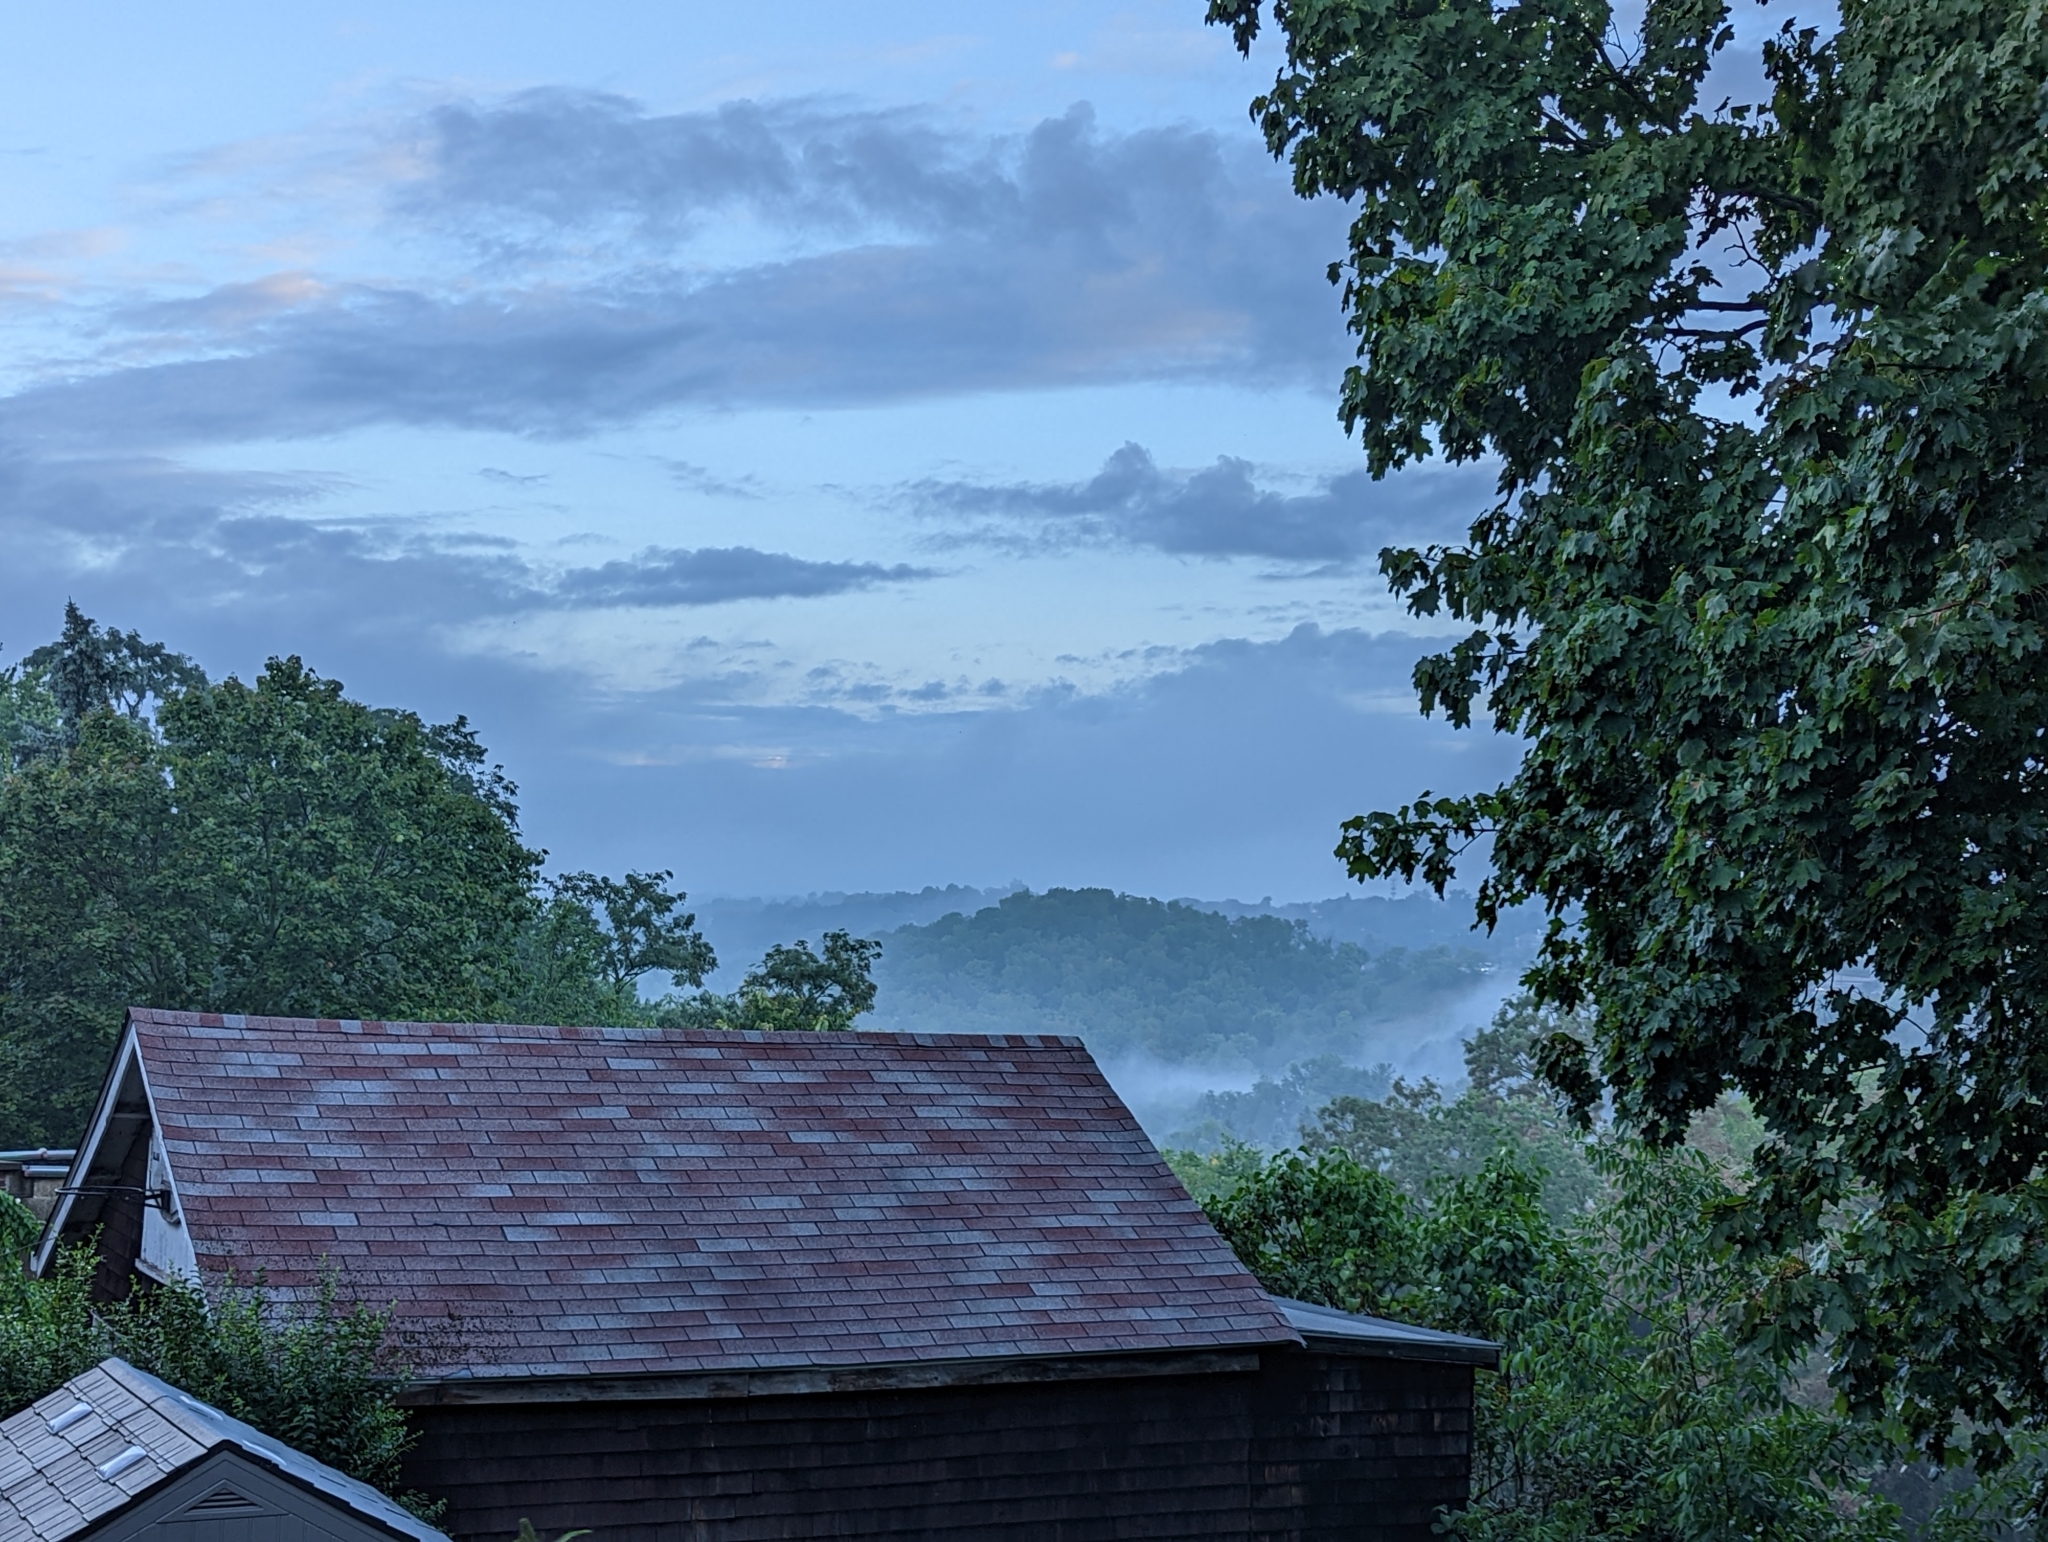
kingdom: Animalia
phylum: Chordata
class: Aves
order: Passeriformes
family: Corvidae
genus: Cyanocitta
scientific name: Cyanocitta cristata
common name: Blue jay
